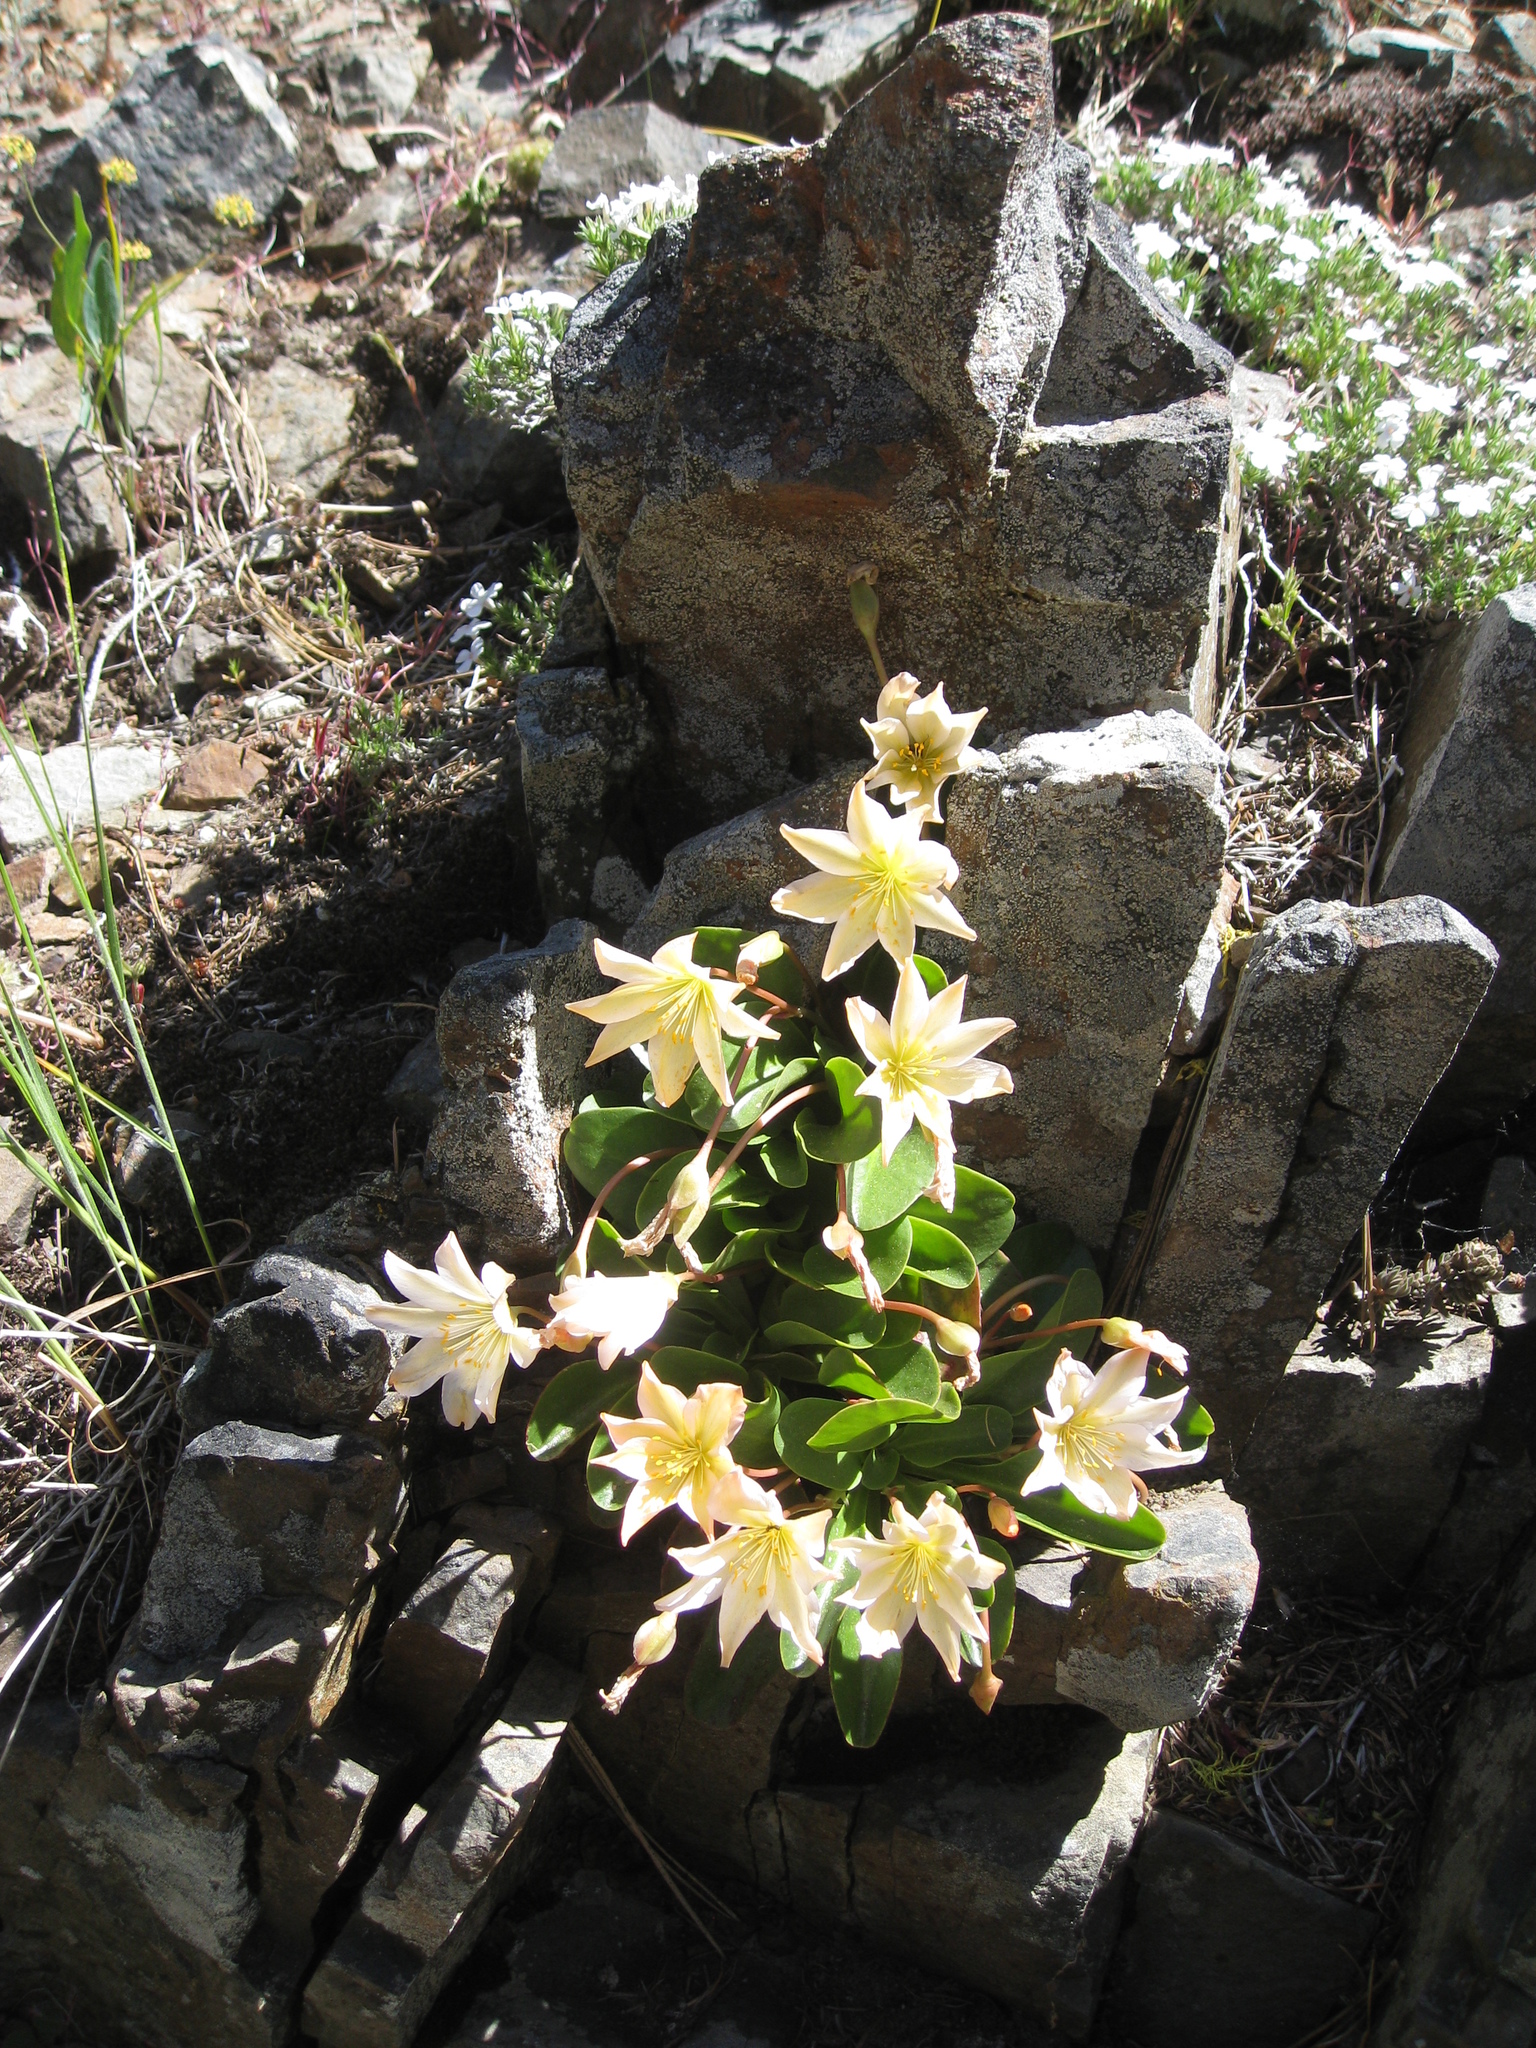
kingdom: Plantae
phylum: Tracheophyta
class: Magnoliopsida
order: Caryophyllales
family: Montiaceae
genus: Lewisiopsis
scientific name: Lewisiopsis tweedyi
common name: Tweedy's pussypaws
